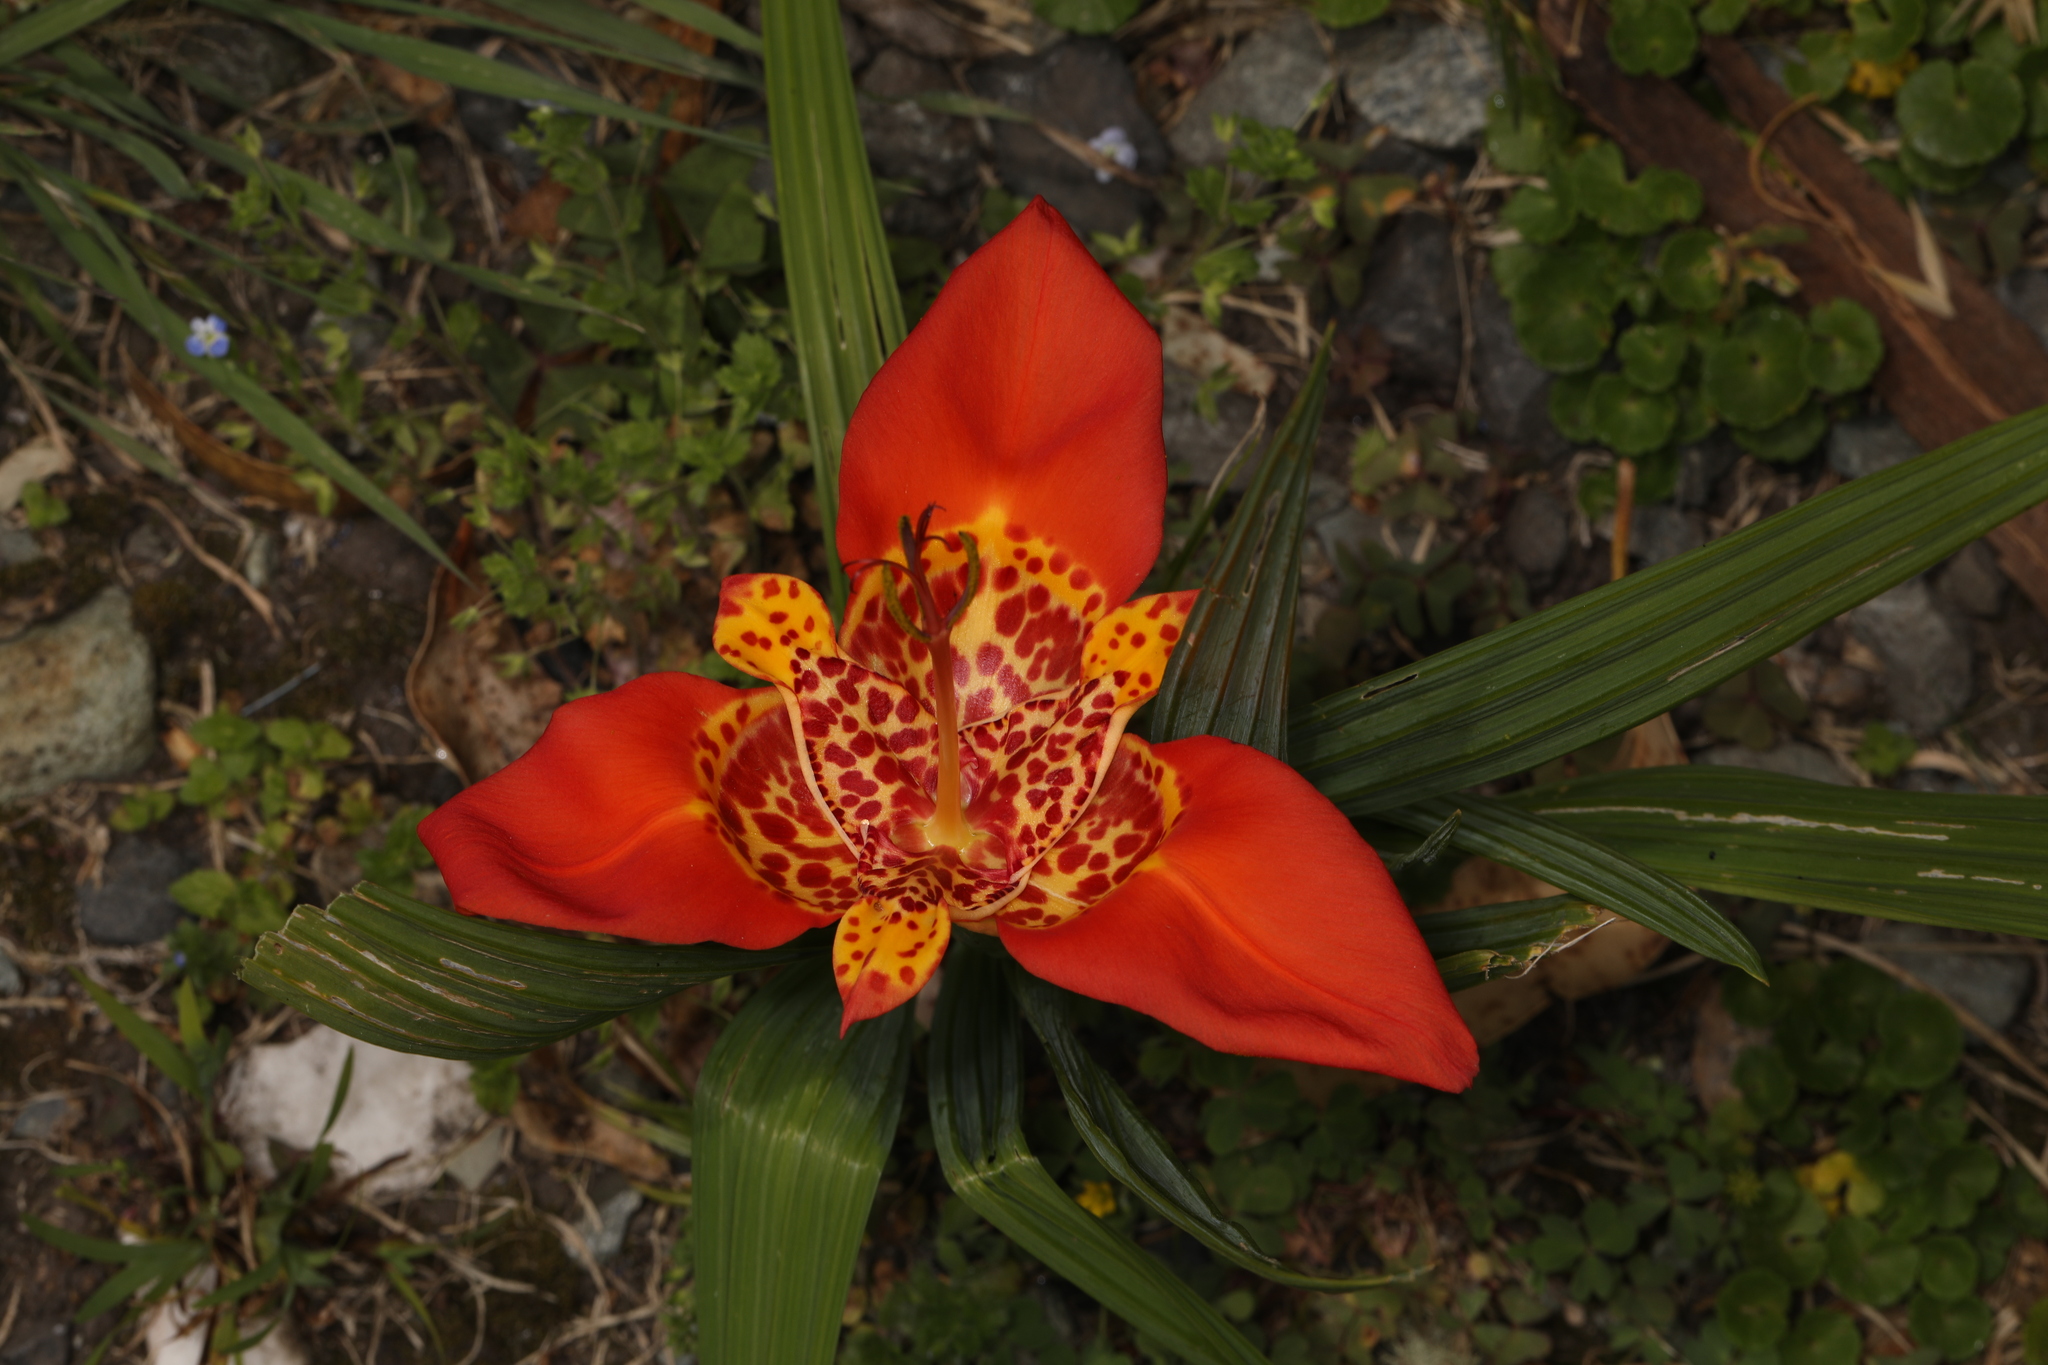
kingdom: Plantae
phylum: Tracheophyta
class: Liliopsida
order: Asparagales
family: Iridaceae
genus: Tigridia
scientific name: Tigridia pavonia
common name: Peacock-flower
